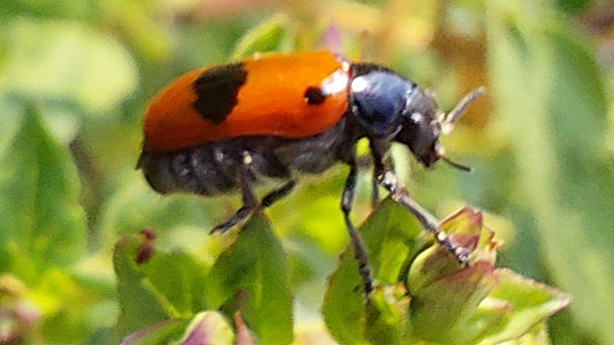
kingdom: Animalia
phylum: Arthropoda
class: Insecta
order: Coleoptera
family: Chrysomelidae
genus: Clytra
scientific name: Clytra laeviuscula
